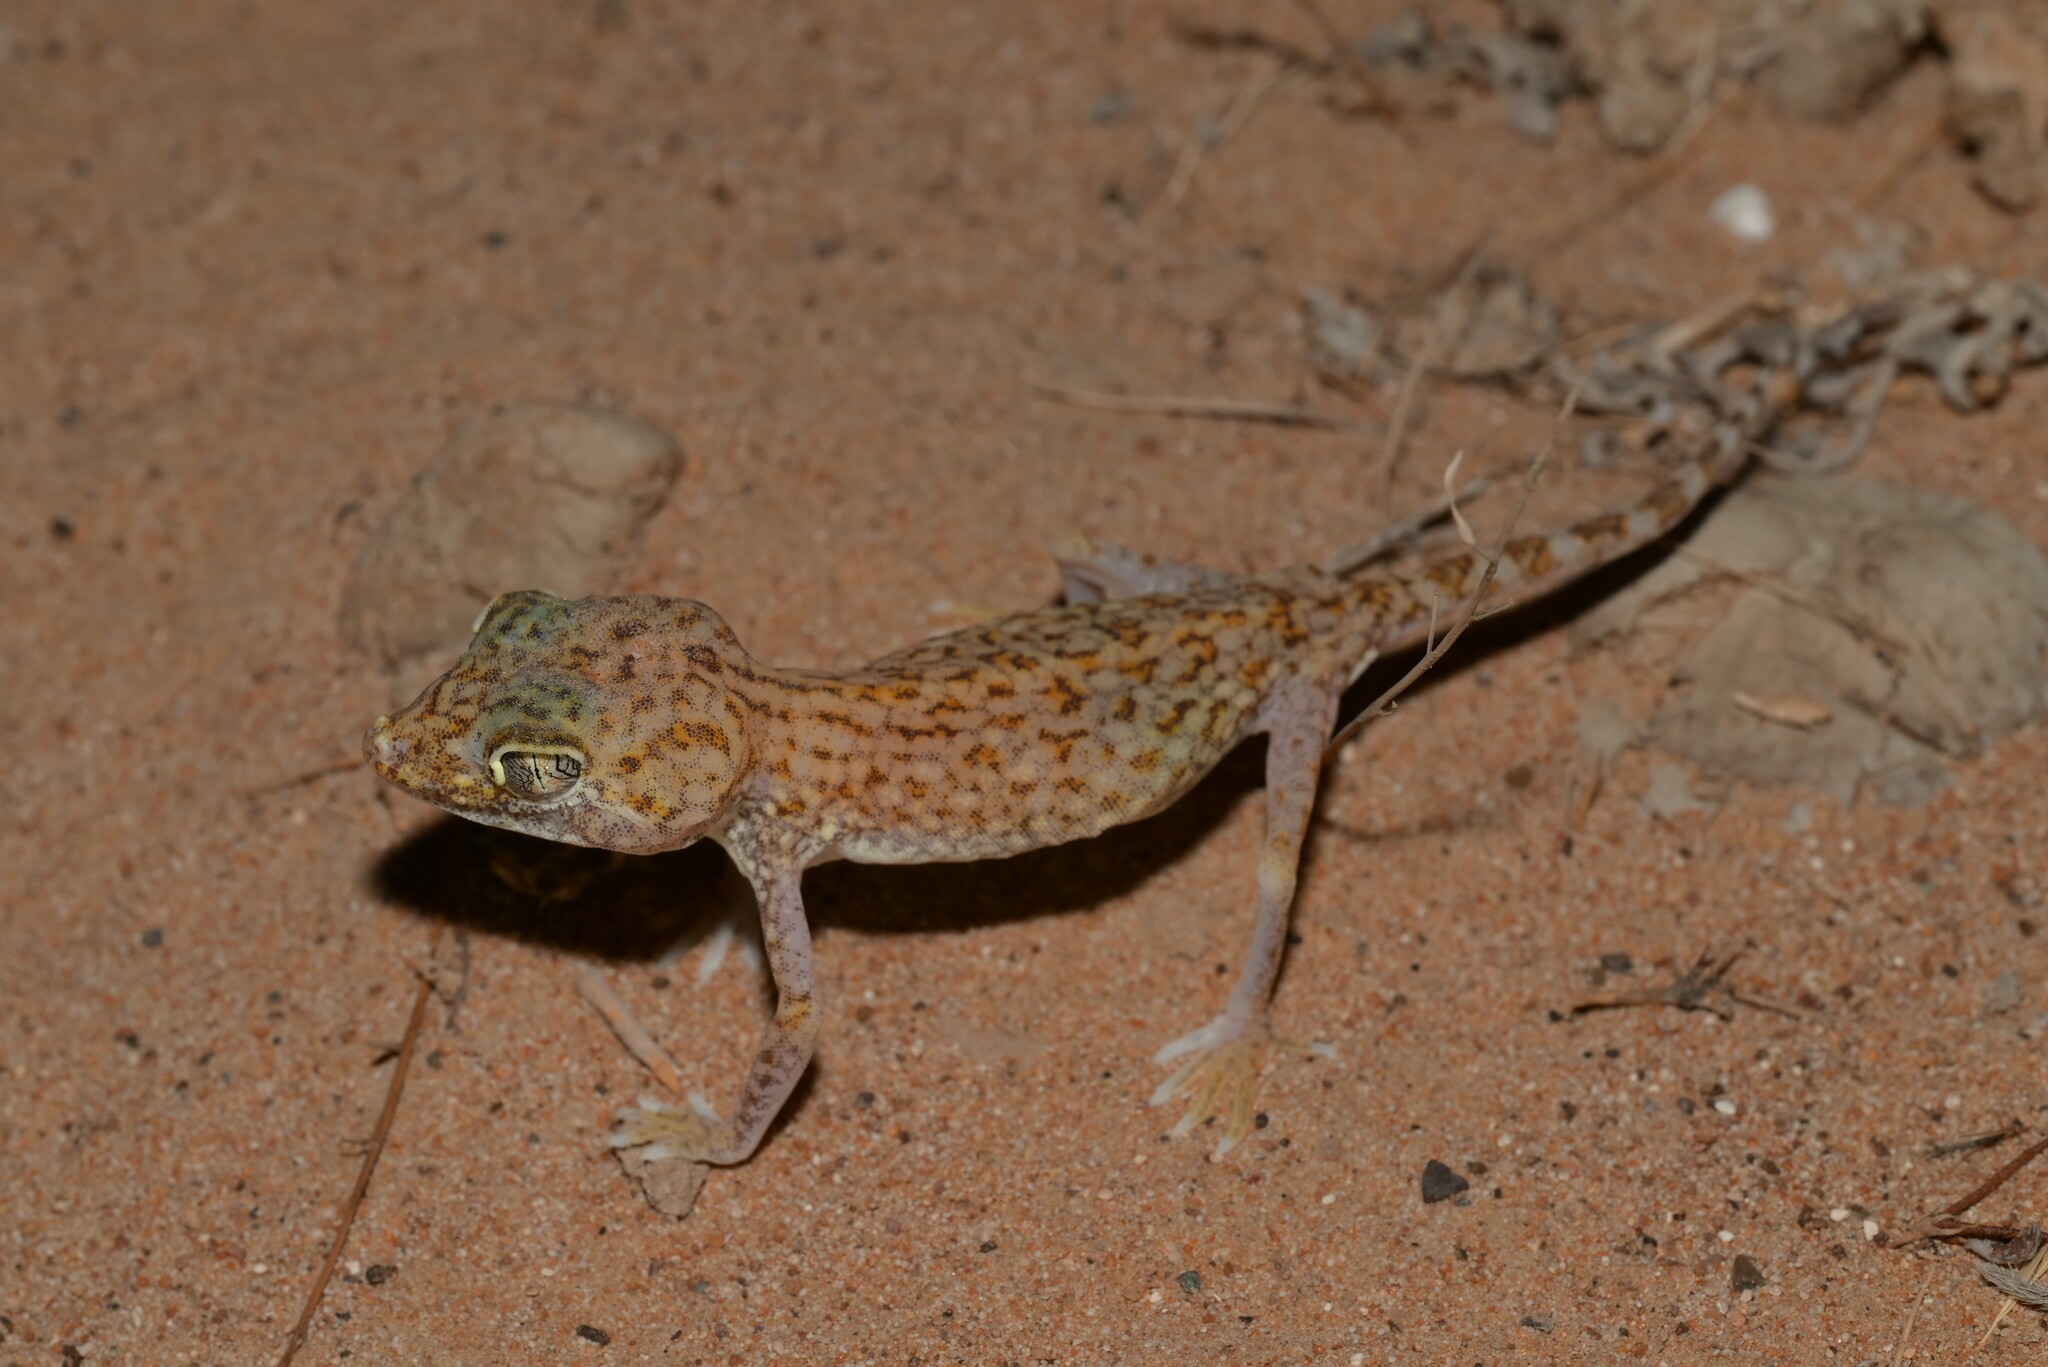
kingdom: Animalia
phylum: Chordata
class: Squamata
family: Gekkonidae
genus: Stenodactylus
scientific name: Stenodactylus doriae
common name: Dune sand gecko
